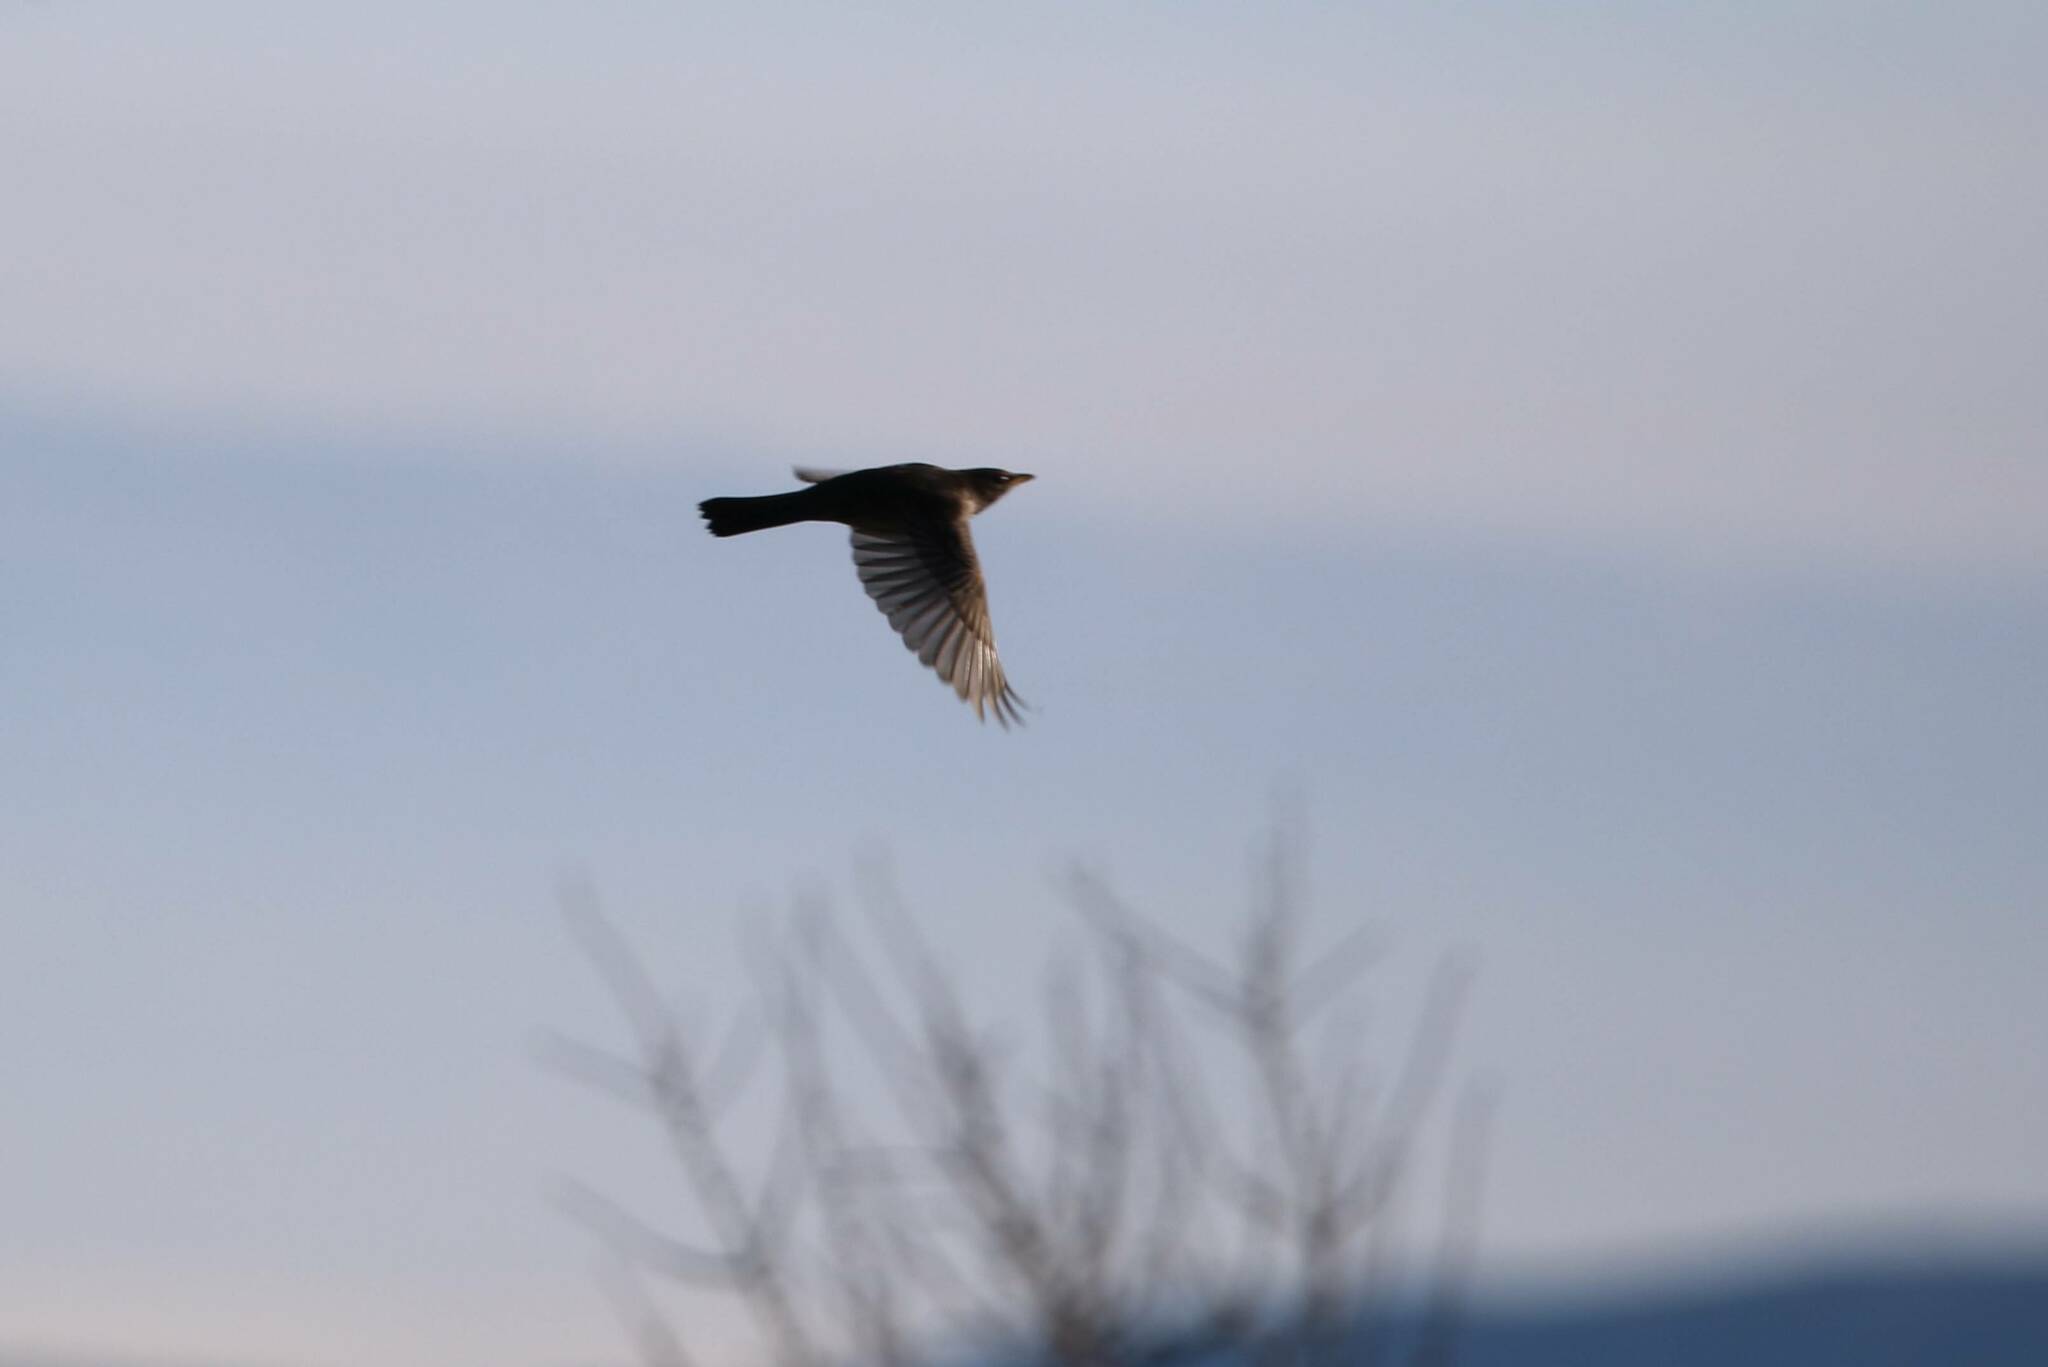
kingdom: Animalia
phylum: Chordata
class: Aves
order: Passeriformes
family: Turdidae
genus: Turdus
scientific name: Turdus torquatus
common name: Ring ouzel
